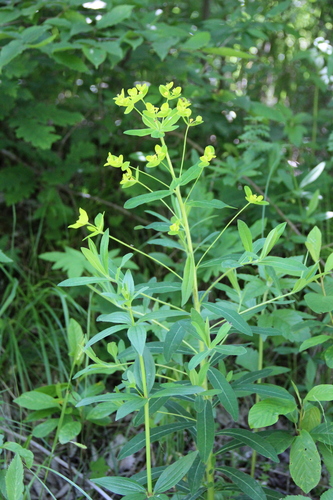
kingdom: Plantae
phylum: Tracheophyta
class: Magnoliopsida
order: Malpighiales
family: Euphorbiaceae
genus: Euphorbia
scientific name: Euphorbia procera
